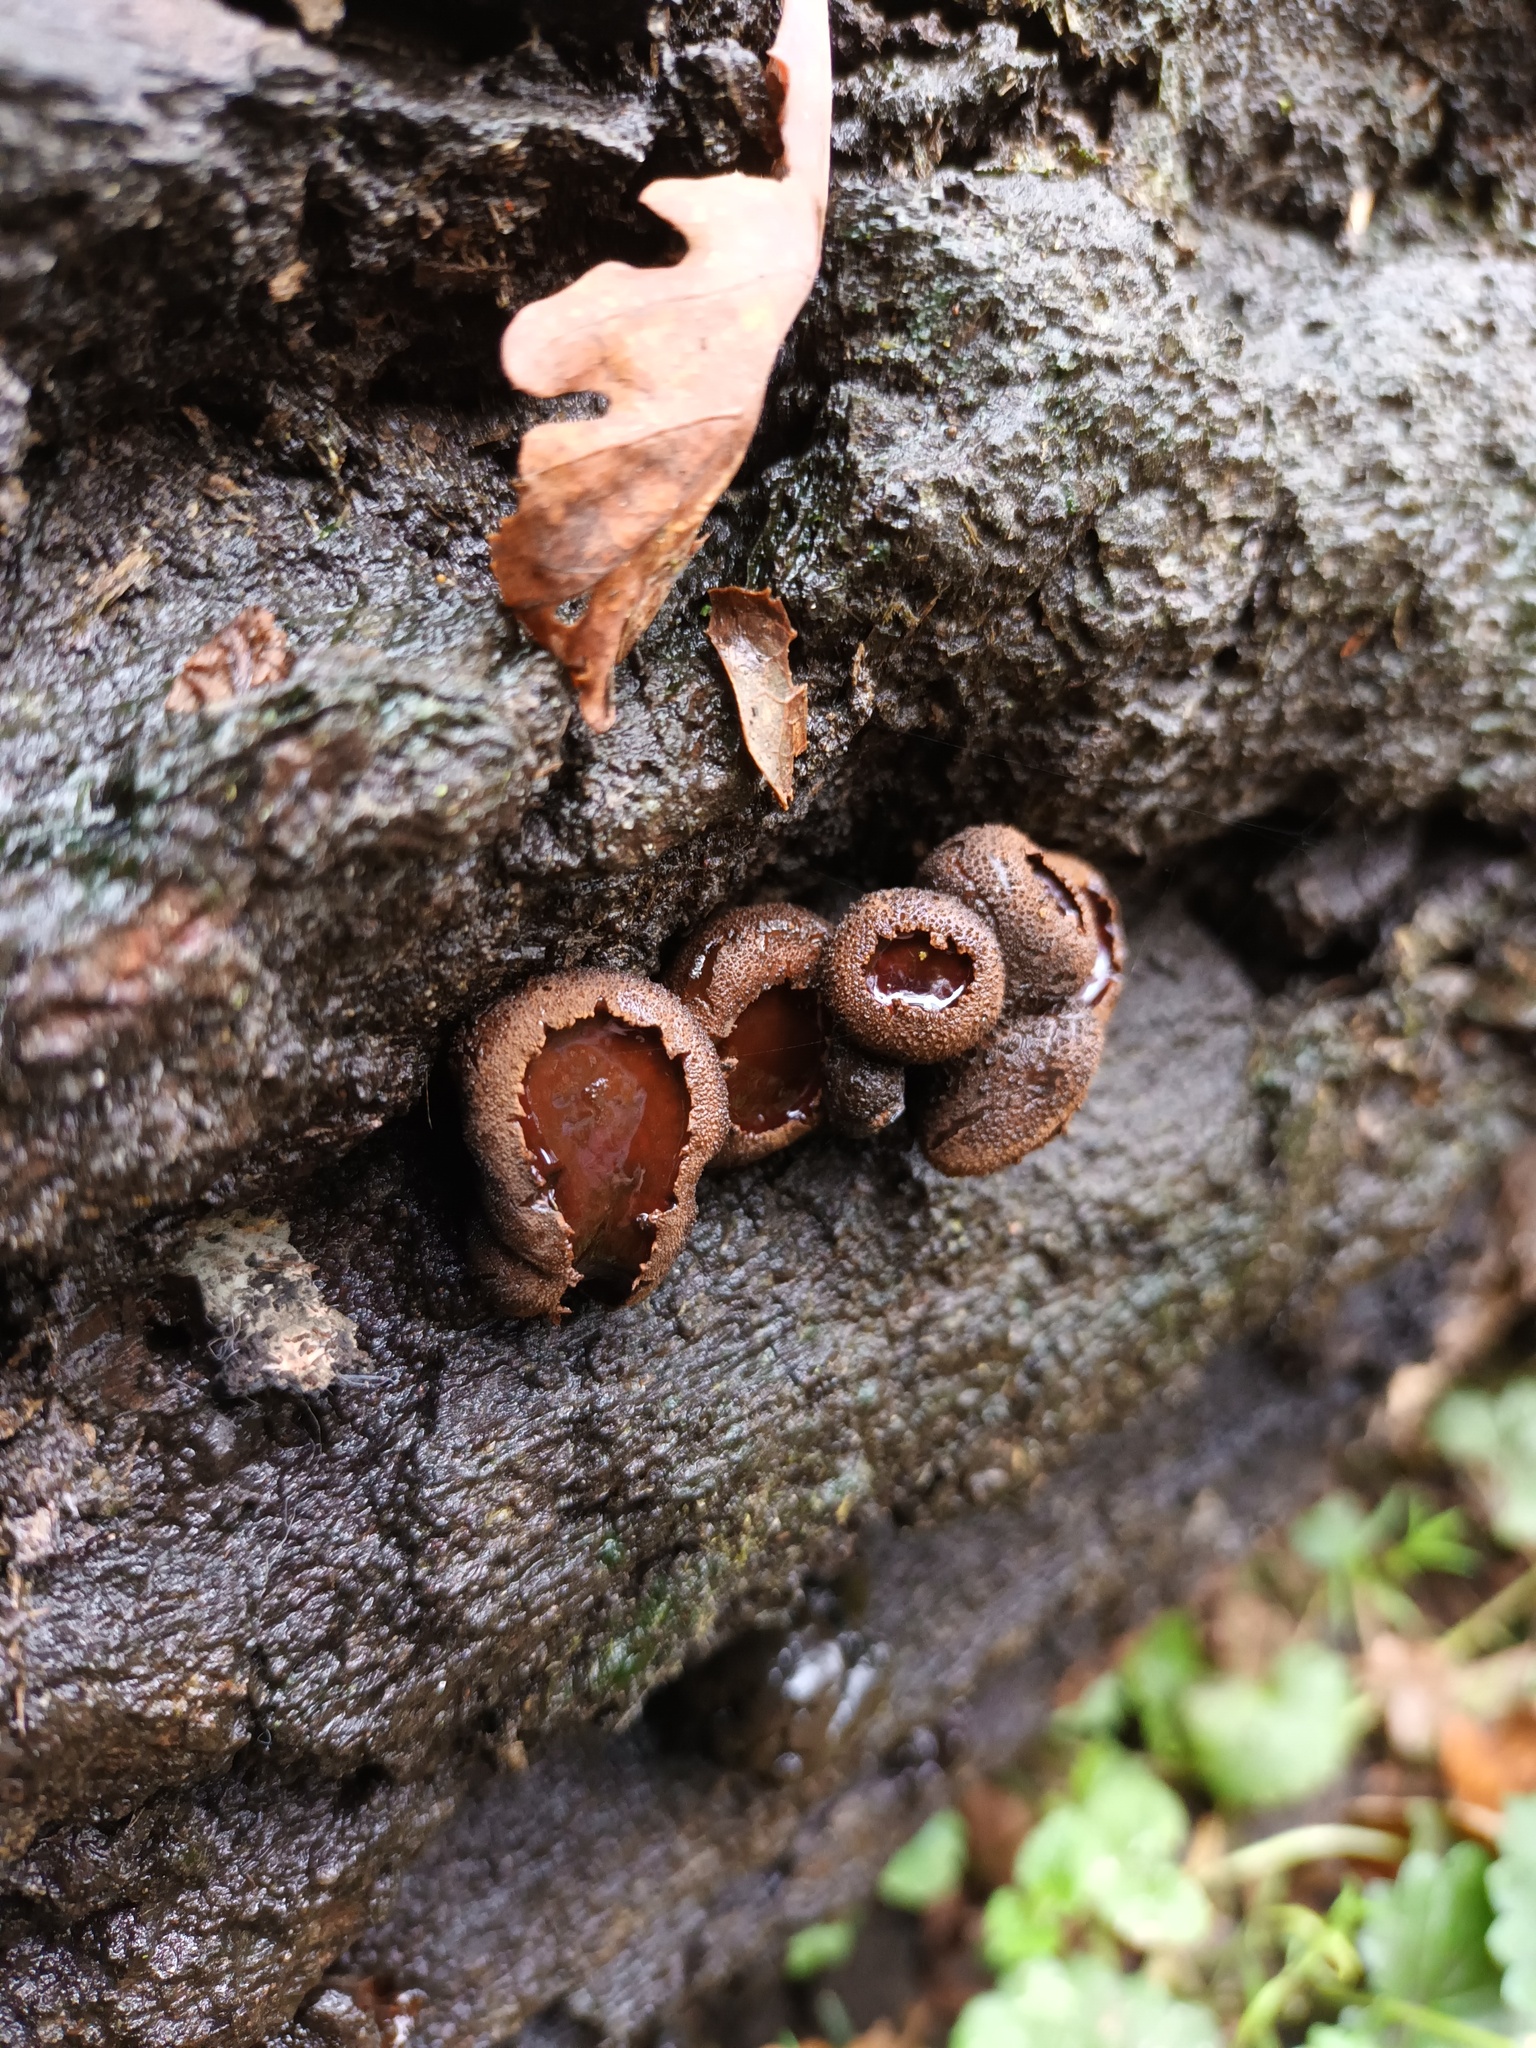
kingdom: Fungi
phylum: Ascomycota
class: Leotiomycetes
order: Phacidiales
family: Phacidiaceae
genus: Bulgaria
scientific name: Bulgaria inquinans
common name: Black bulgar
